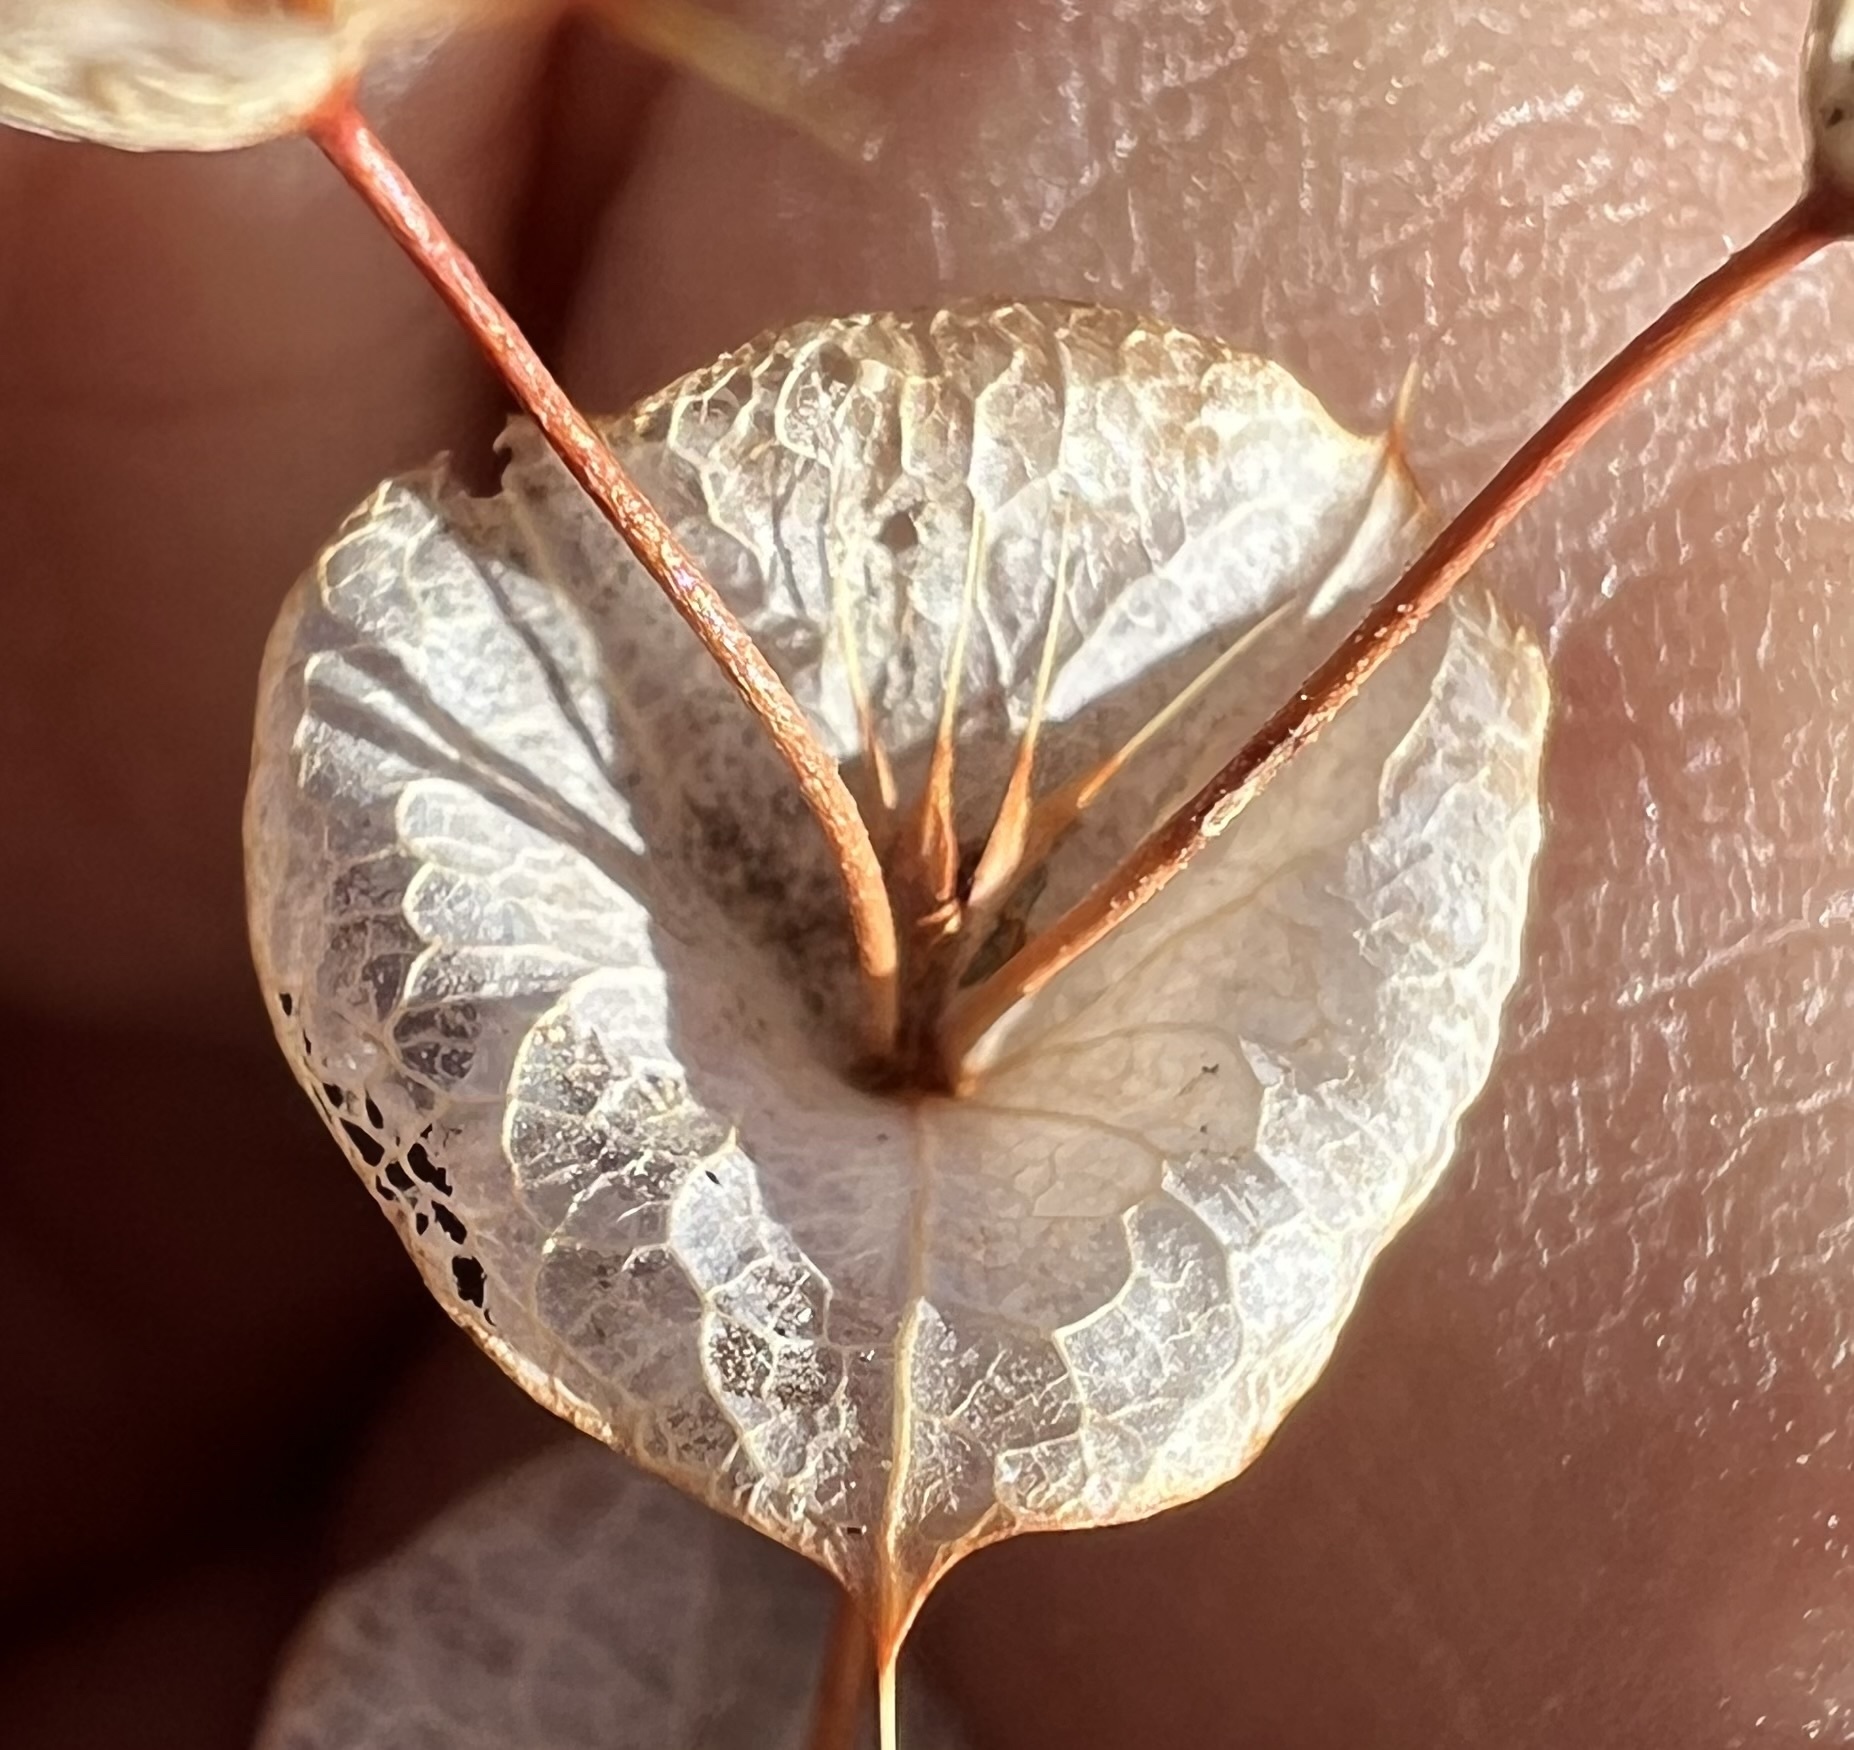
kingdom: Plantae
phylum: Tracheophyta
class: Magnoliopsida
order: Caryophyllales
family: Polygonaceae
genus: Oxytheca
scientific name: Oxytheca perfoliata
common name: Round-leaf puncturebract
